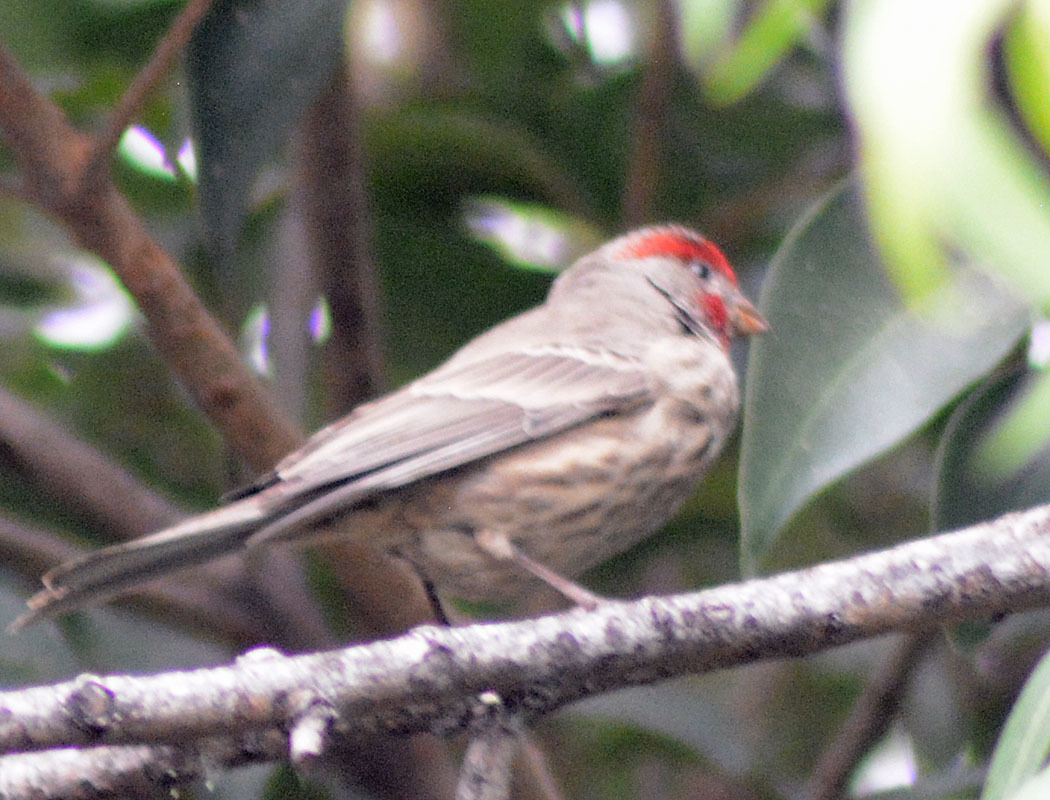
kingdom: Animalia
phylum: Chordata
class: Aves
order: Passeriformes
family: Fringillidae
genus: Haemorhous
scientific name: Haemorhous mexicanus
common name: House finch
